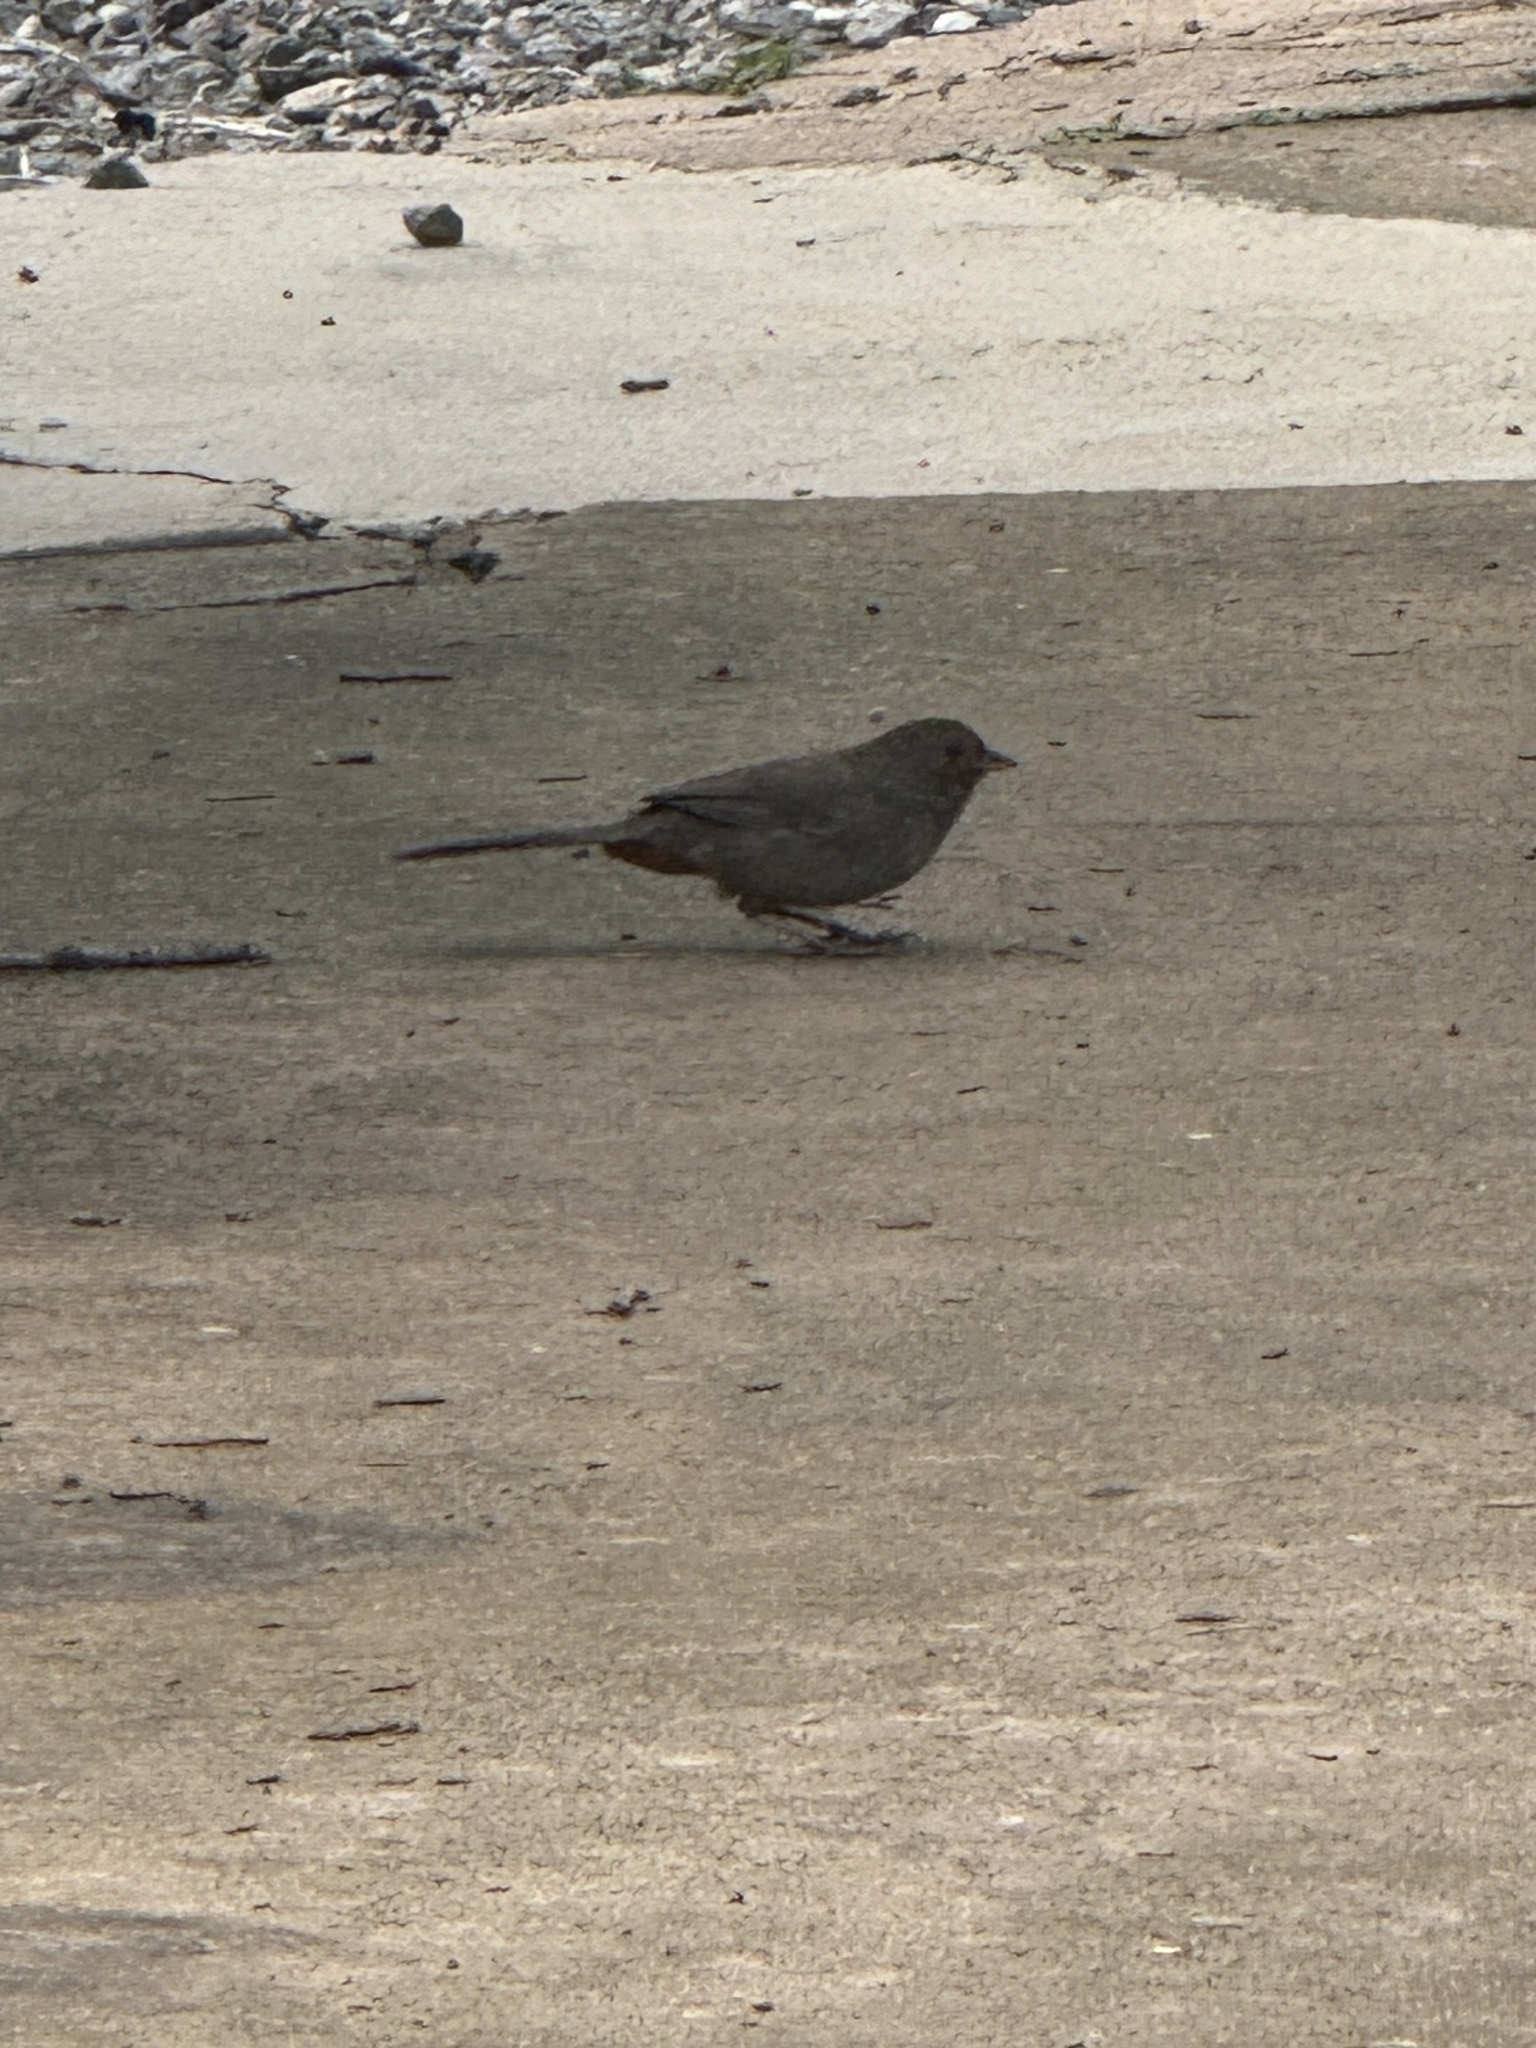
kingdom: Animalia
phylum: Chordata
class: Aves
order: Passeriformes
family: Passerellidae
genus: Melozone
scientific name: Melozone crissalis
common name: California towhee
